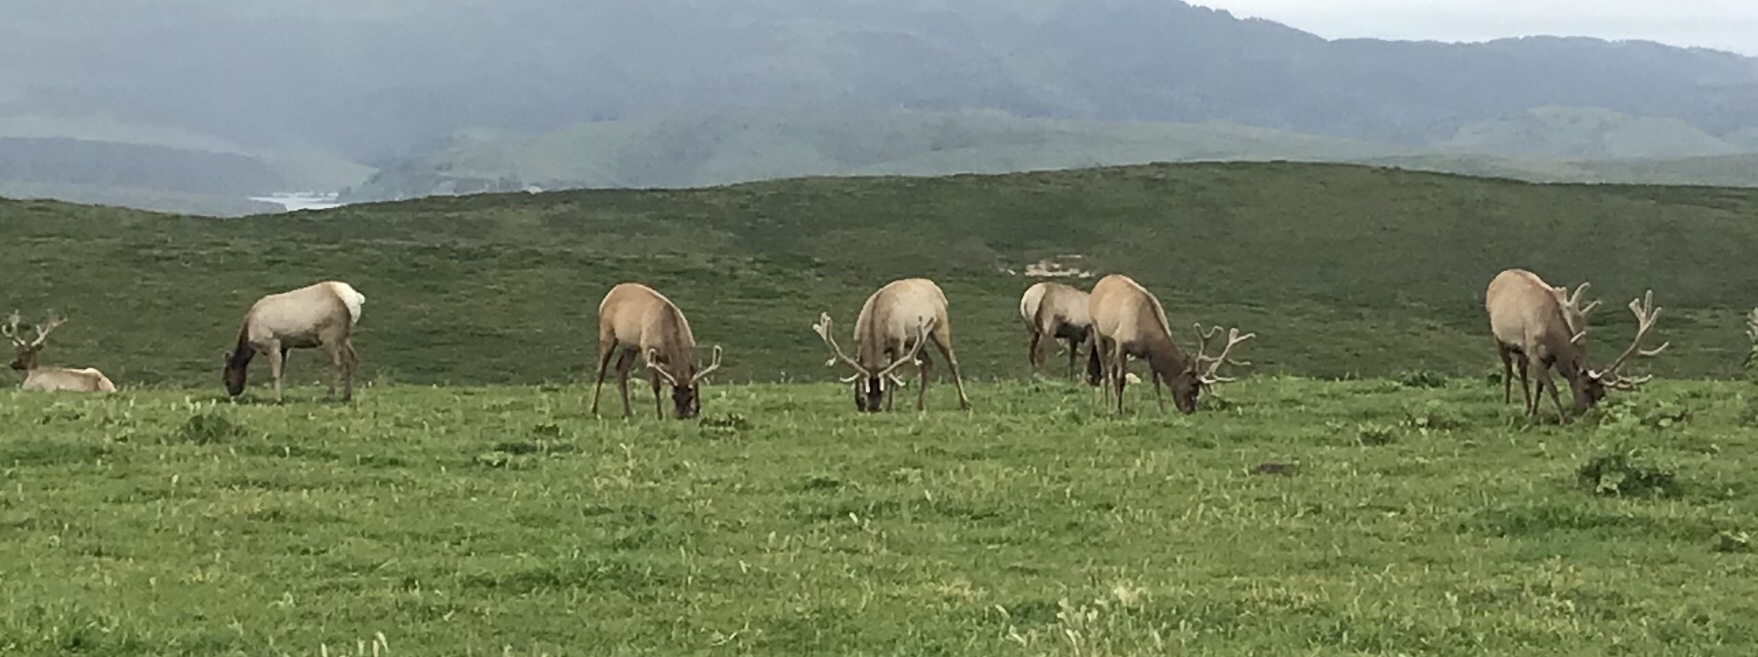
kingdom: Animalia
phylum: Chordata
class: Mammalia
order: Artiodactyla
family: Cervidae
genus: Cervus
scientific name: Cervus elaphus
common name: Red deer
